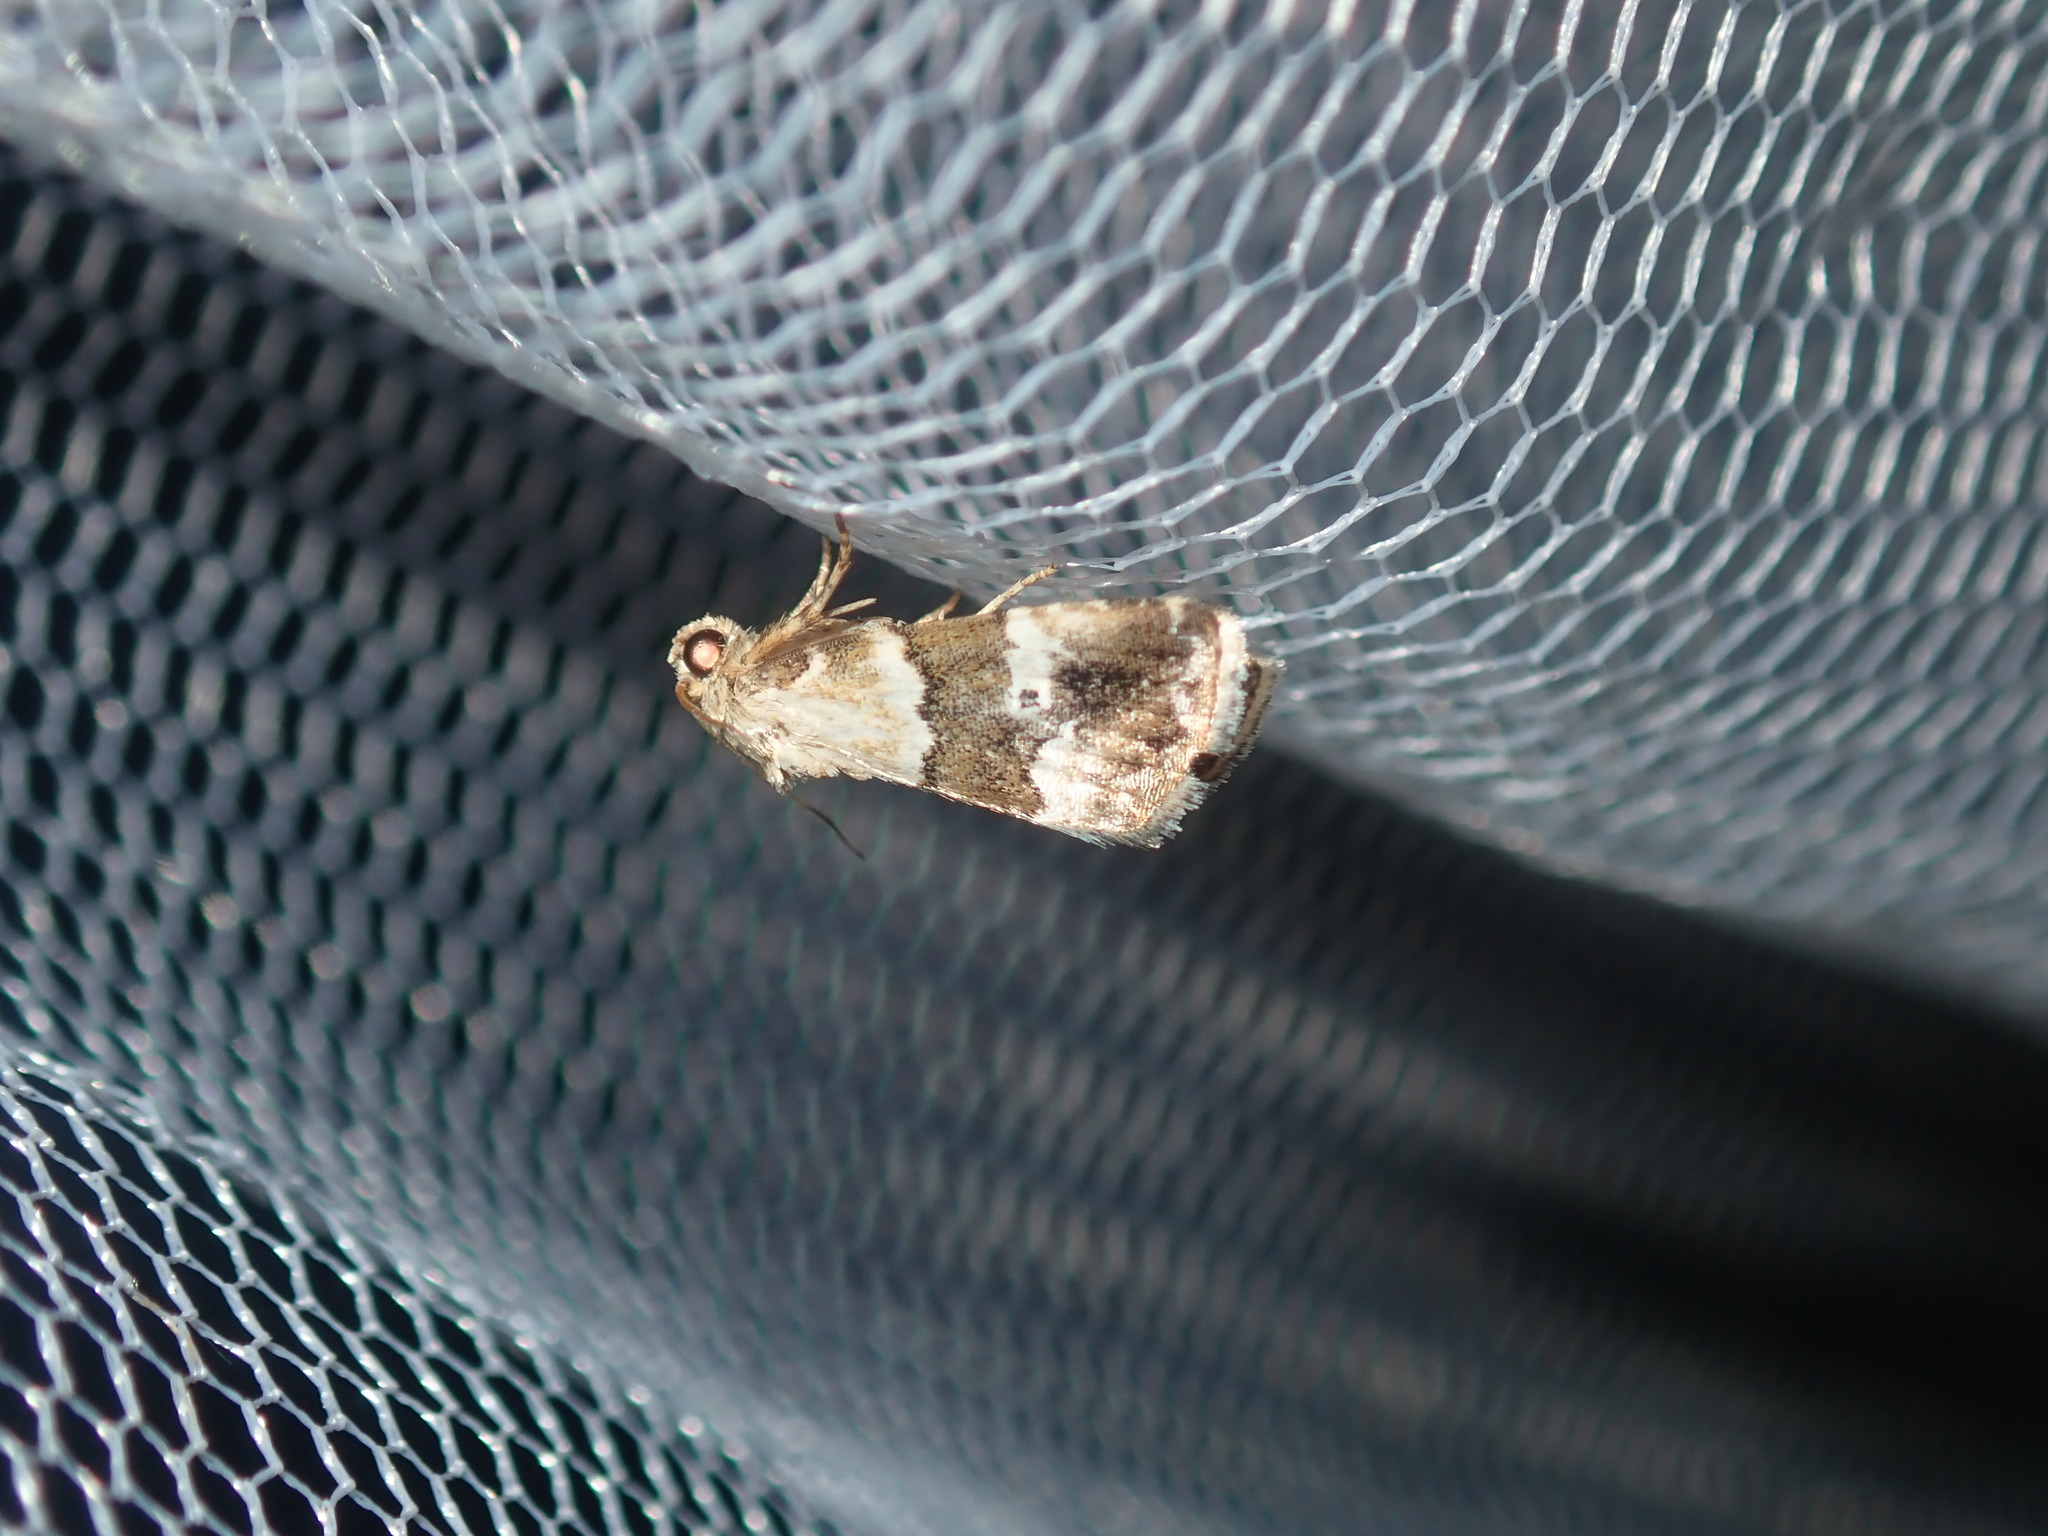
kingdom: Animalia
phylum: Arthropoda
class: Insecta
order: Lepidoptera
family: Noctuidae
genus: Maliattha
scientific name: Maliattha amorpha
